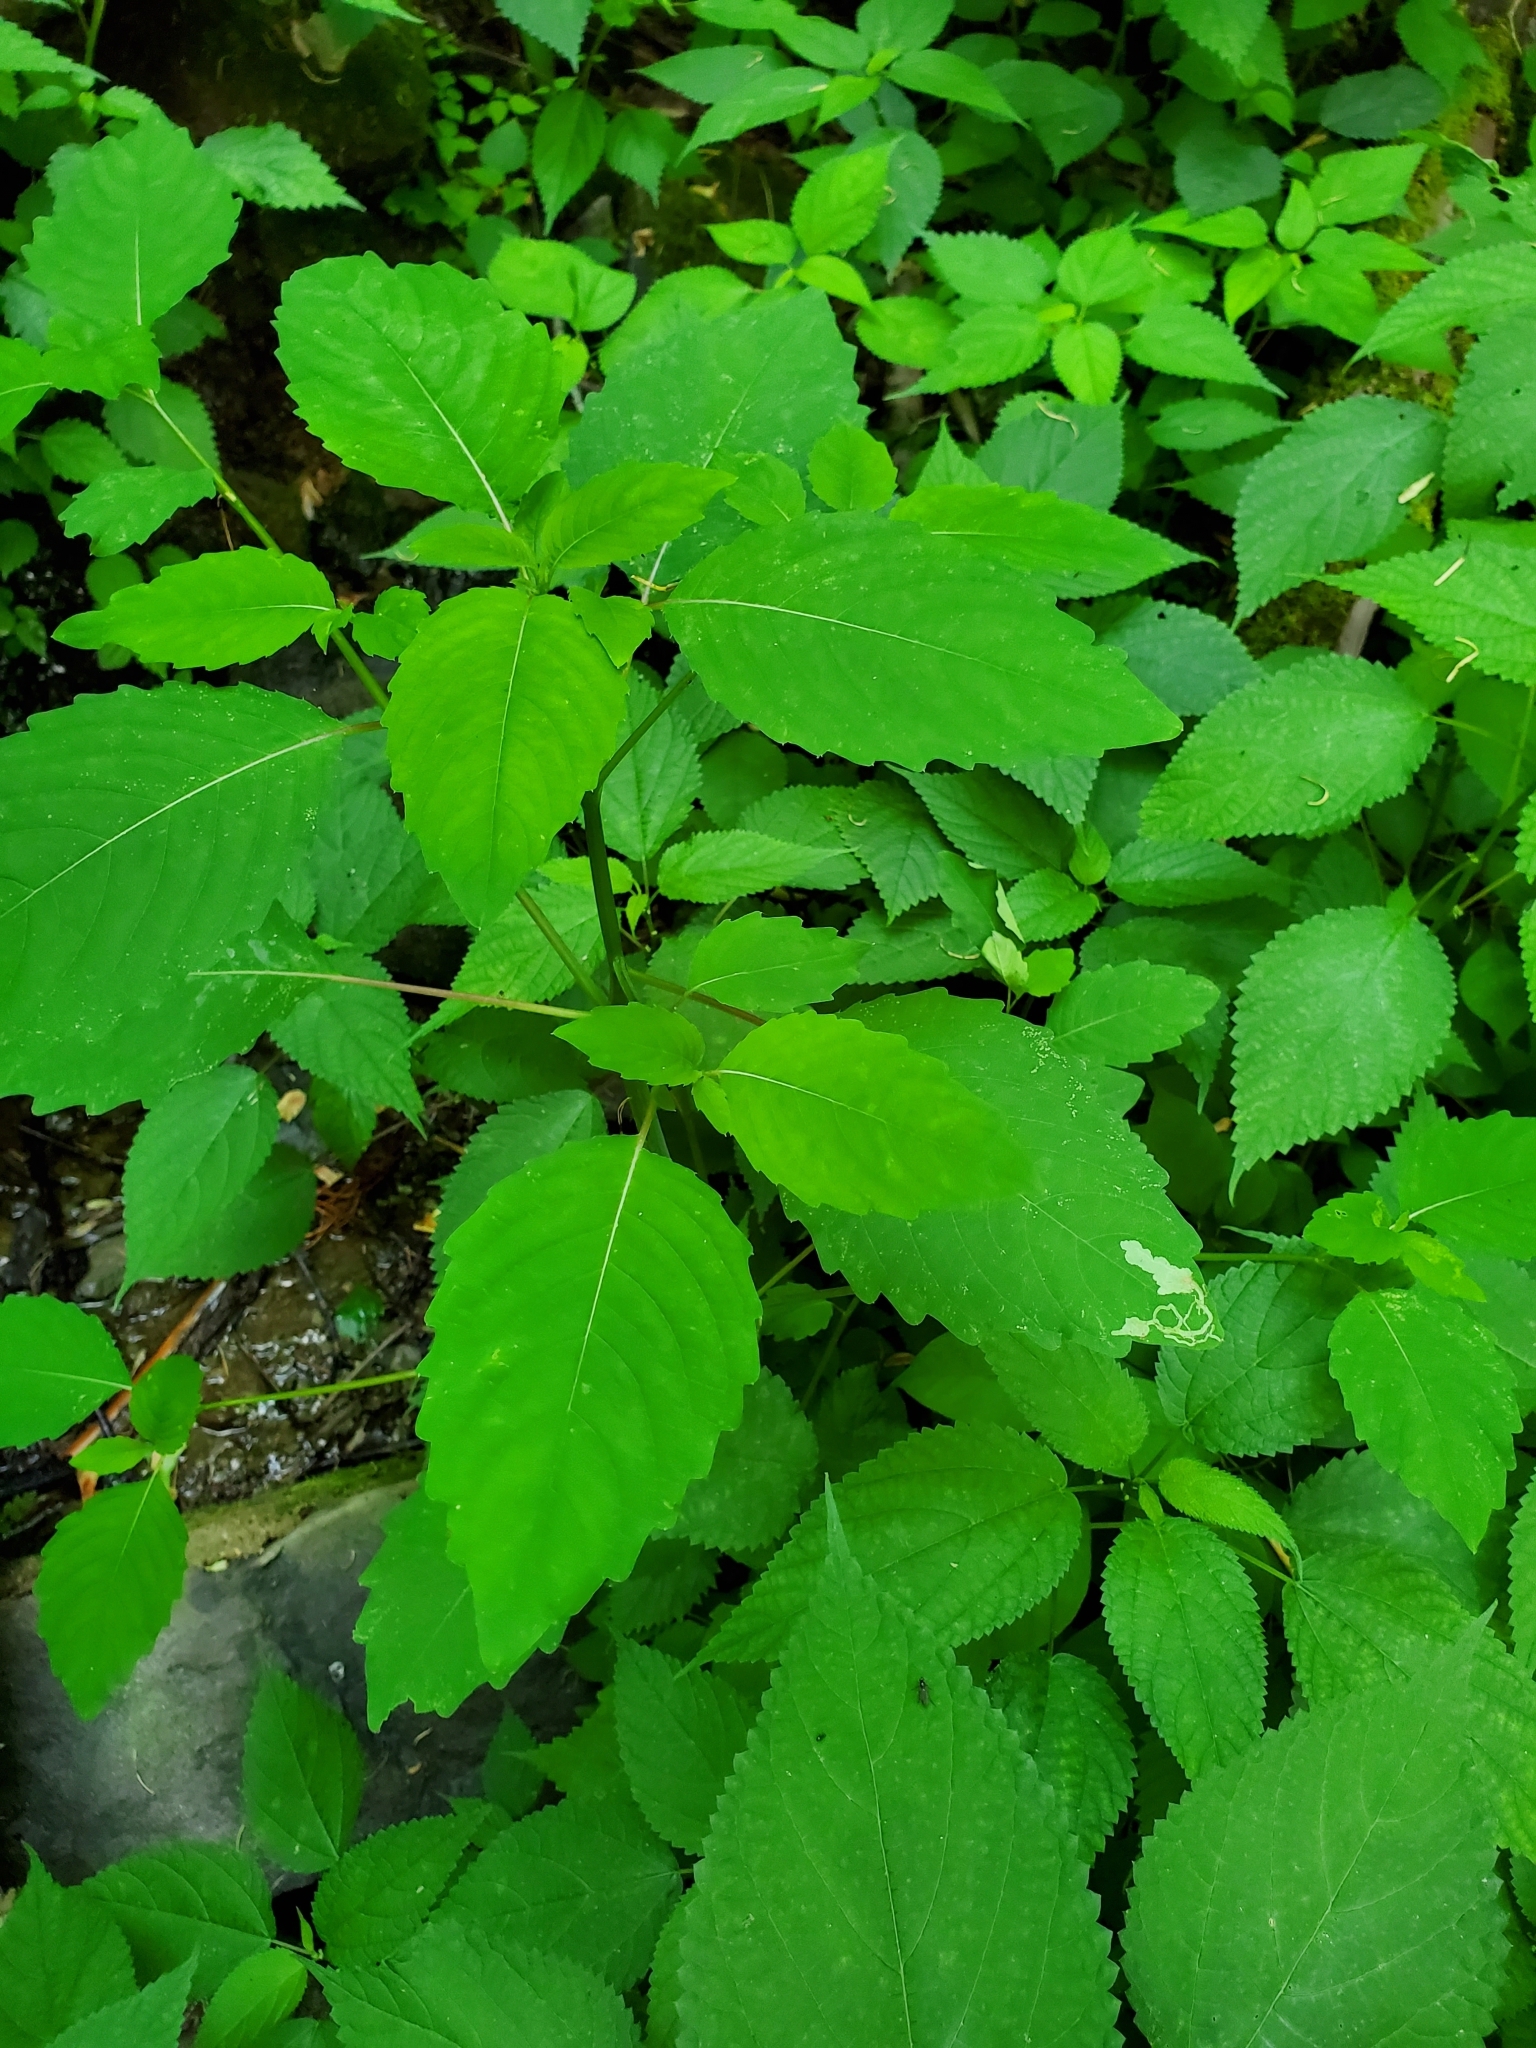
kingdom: Animalia
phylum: Arthropoda
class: Insecta
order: Diptera
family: Agromyzidae
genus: Phytoliriomyza
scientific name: Phytoliriomyza melampyga
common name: Jewelweed leaf-miner fly
